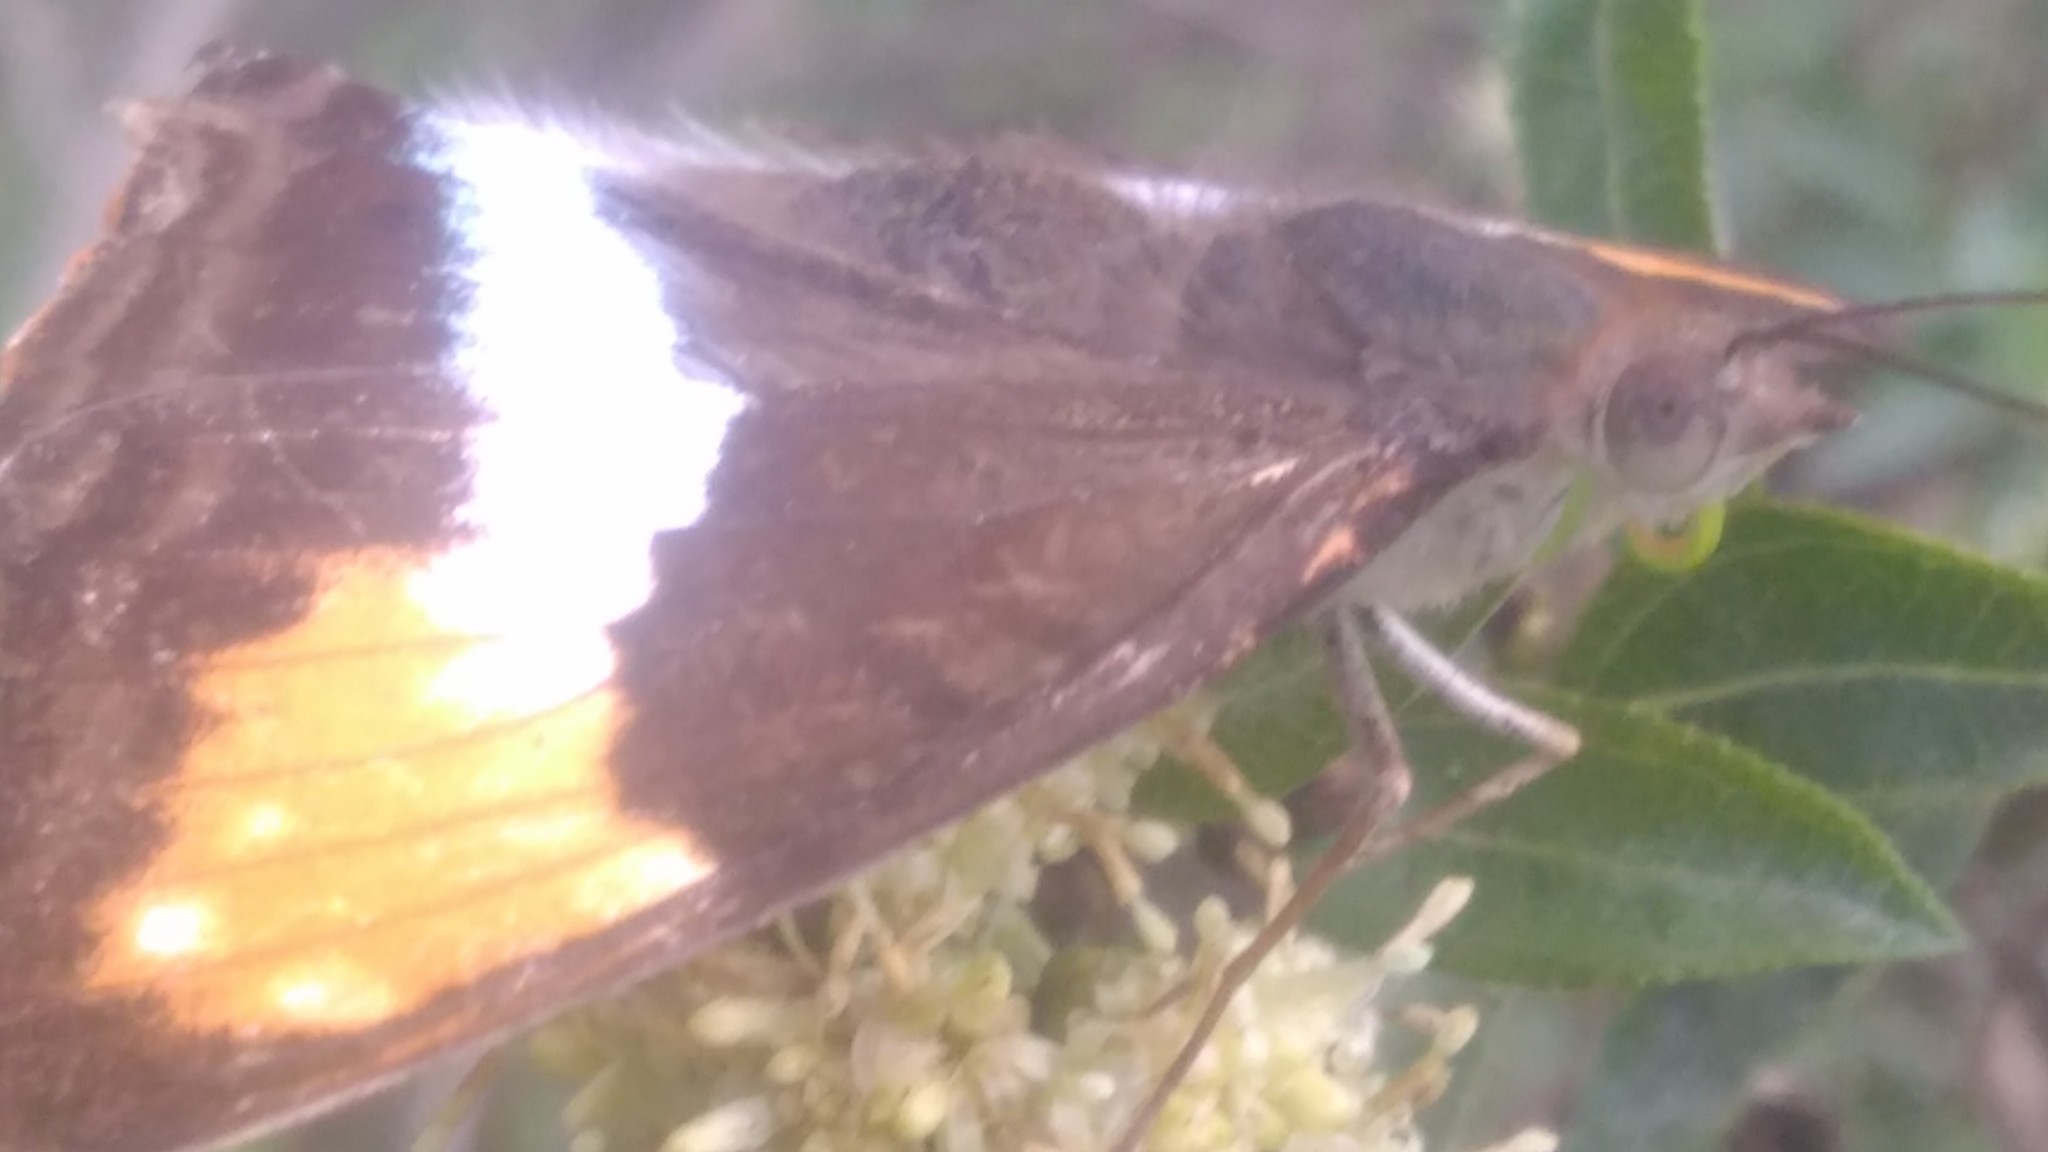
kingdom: Animalia
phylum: Arthropoda
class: Insecta
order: Lepidoptera
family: Nymphalidae
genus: Doxocopa
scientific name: Doxocopa laurentia
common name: Turquoise emperor
